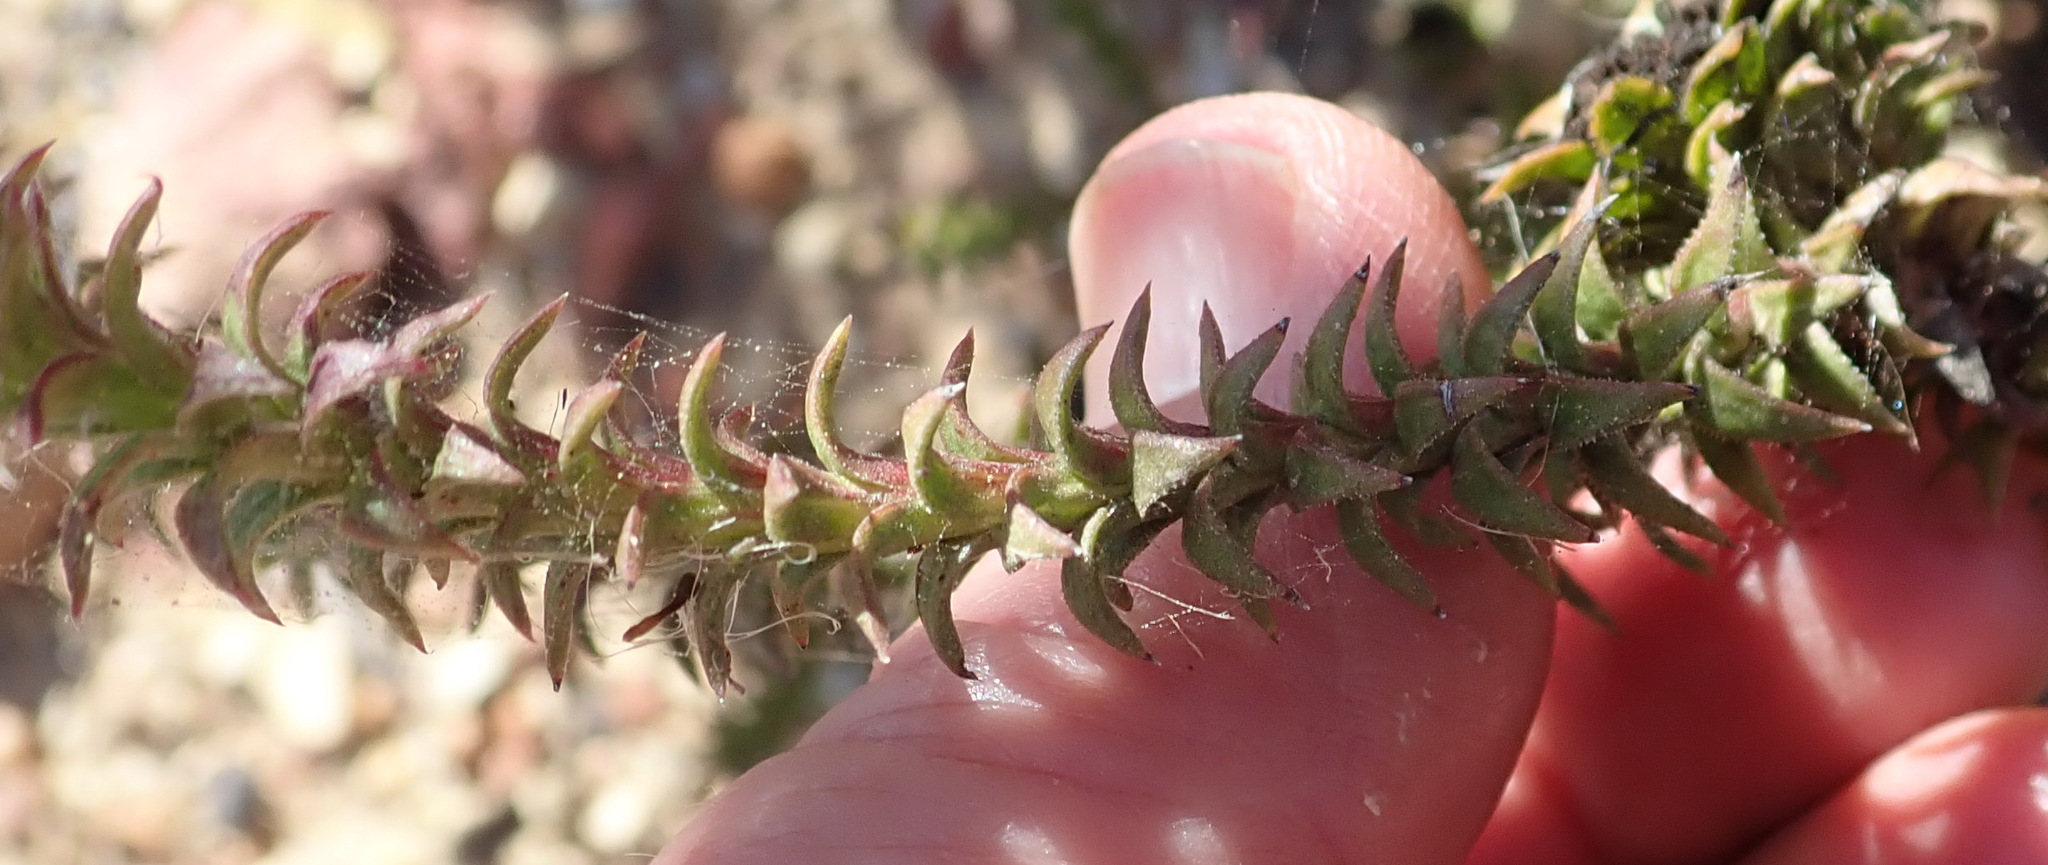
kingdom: Plantae
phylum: Tracheophyta
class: Magnoliopsida
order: Asterales
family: Asteraceae
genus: Oedera
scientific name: Oedera imbricata
